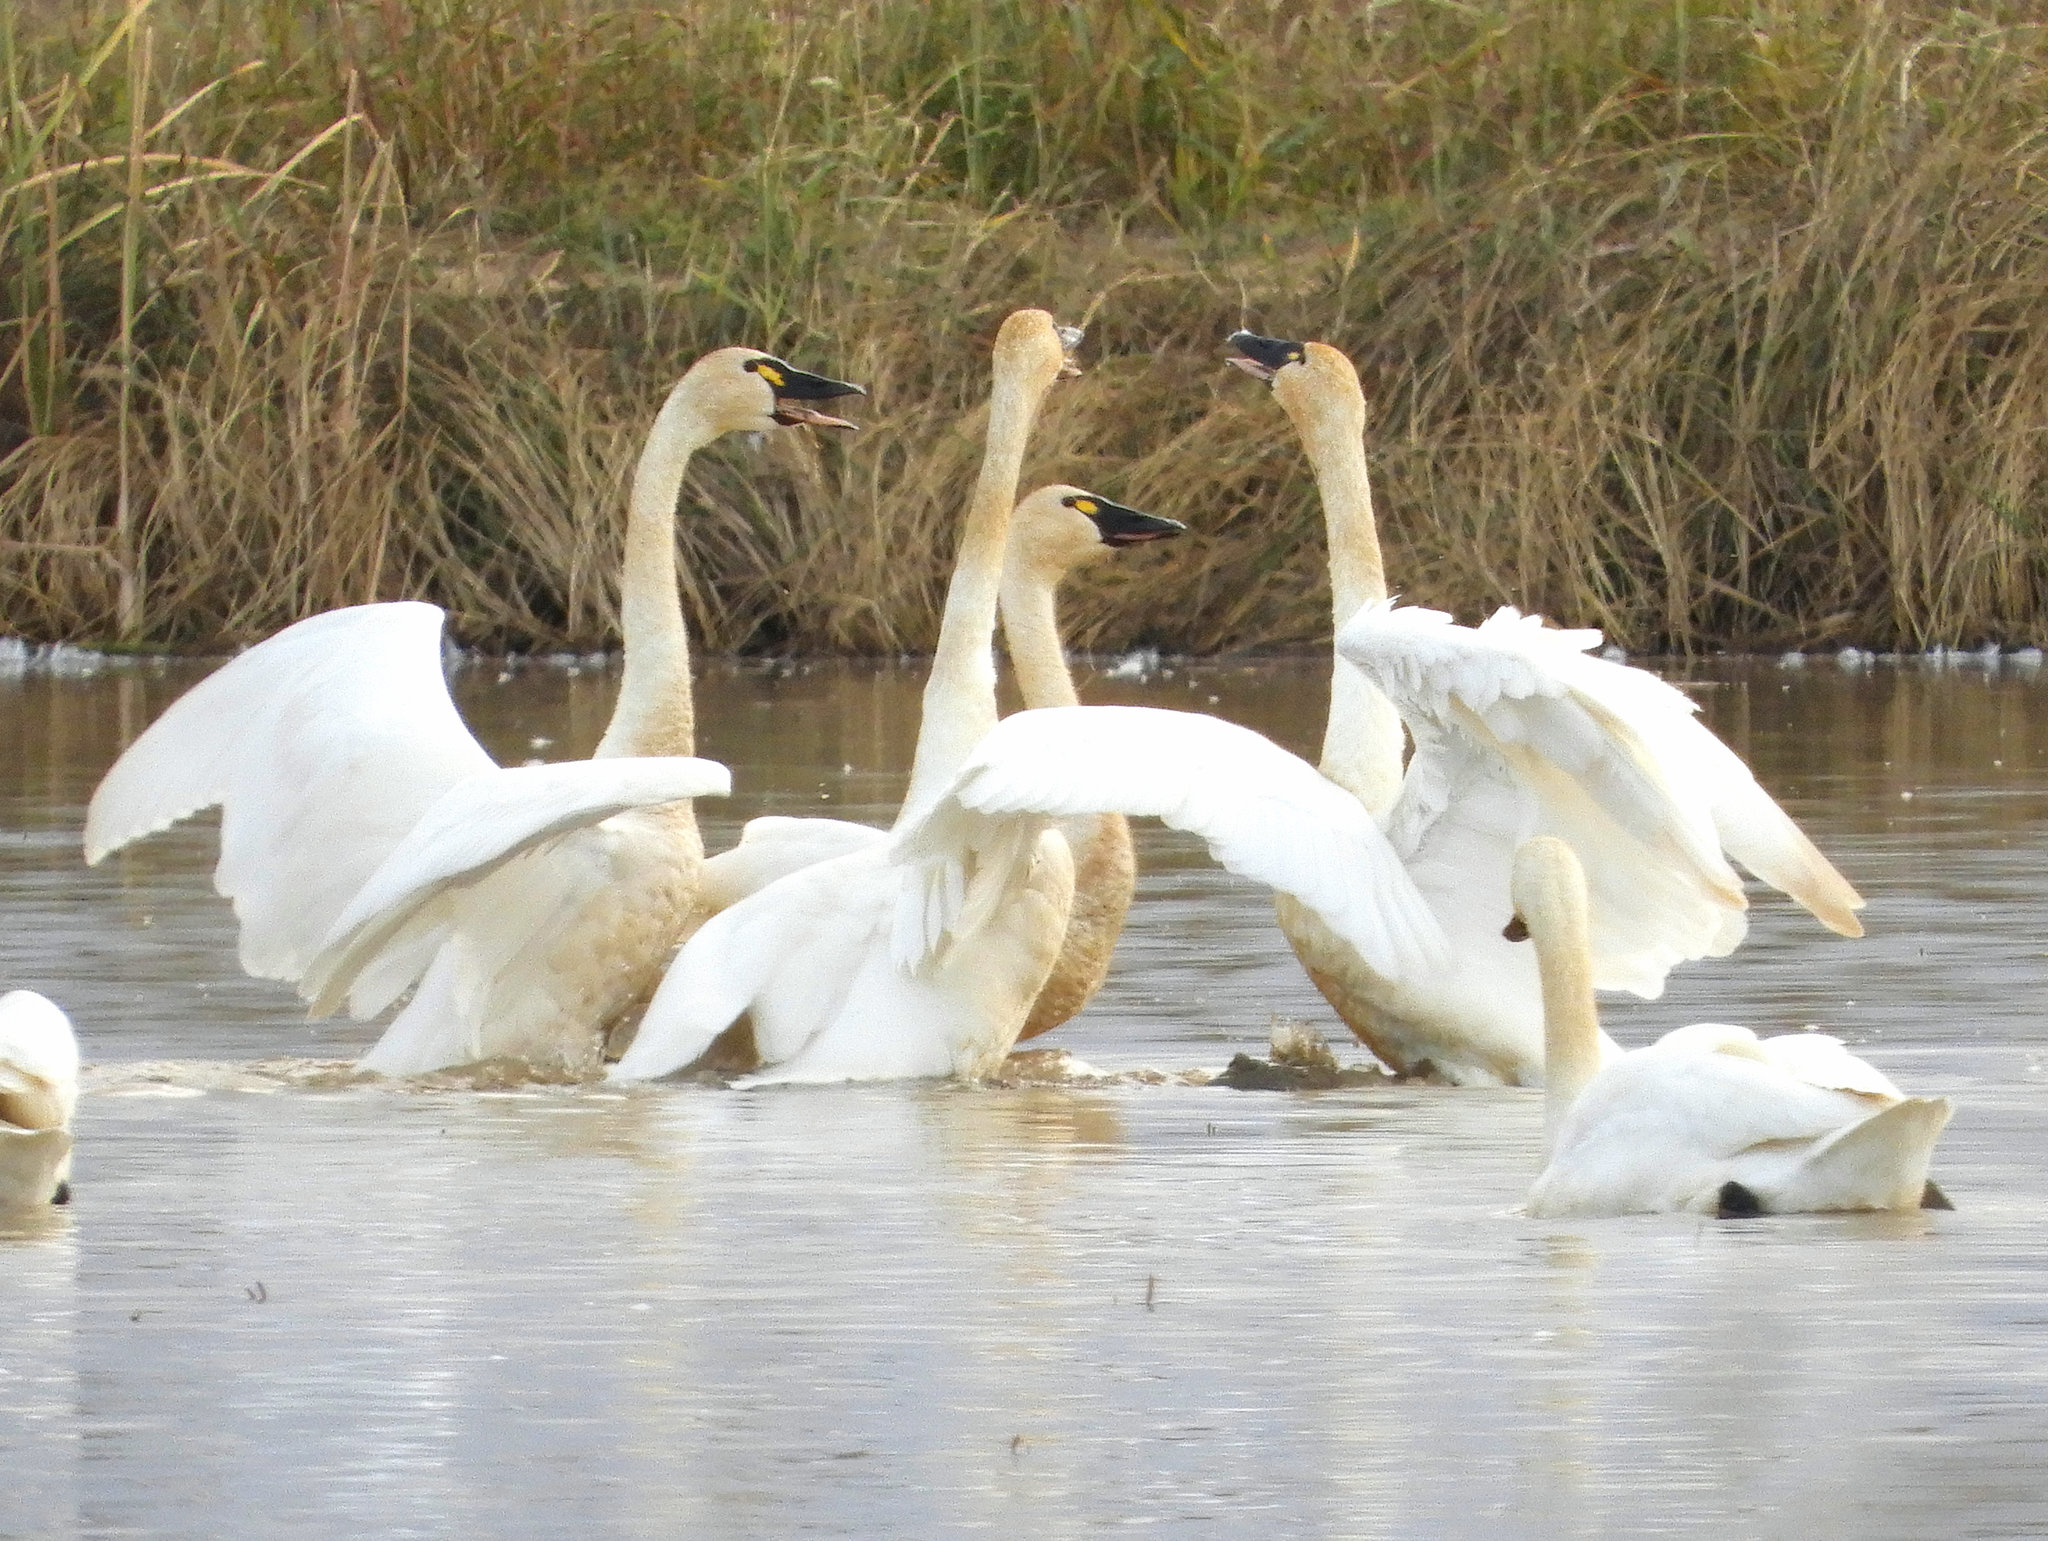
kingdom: Animalia
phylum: Chordata
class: Aves
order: Anseriformes
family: Anatidae
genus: Cygnus
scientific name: Cygnus columbianus
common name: Tundra swan
